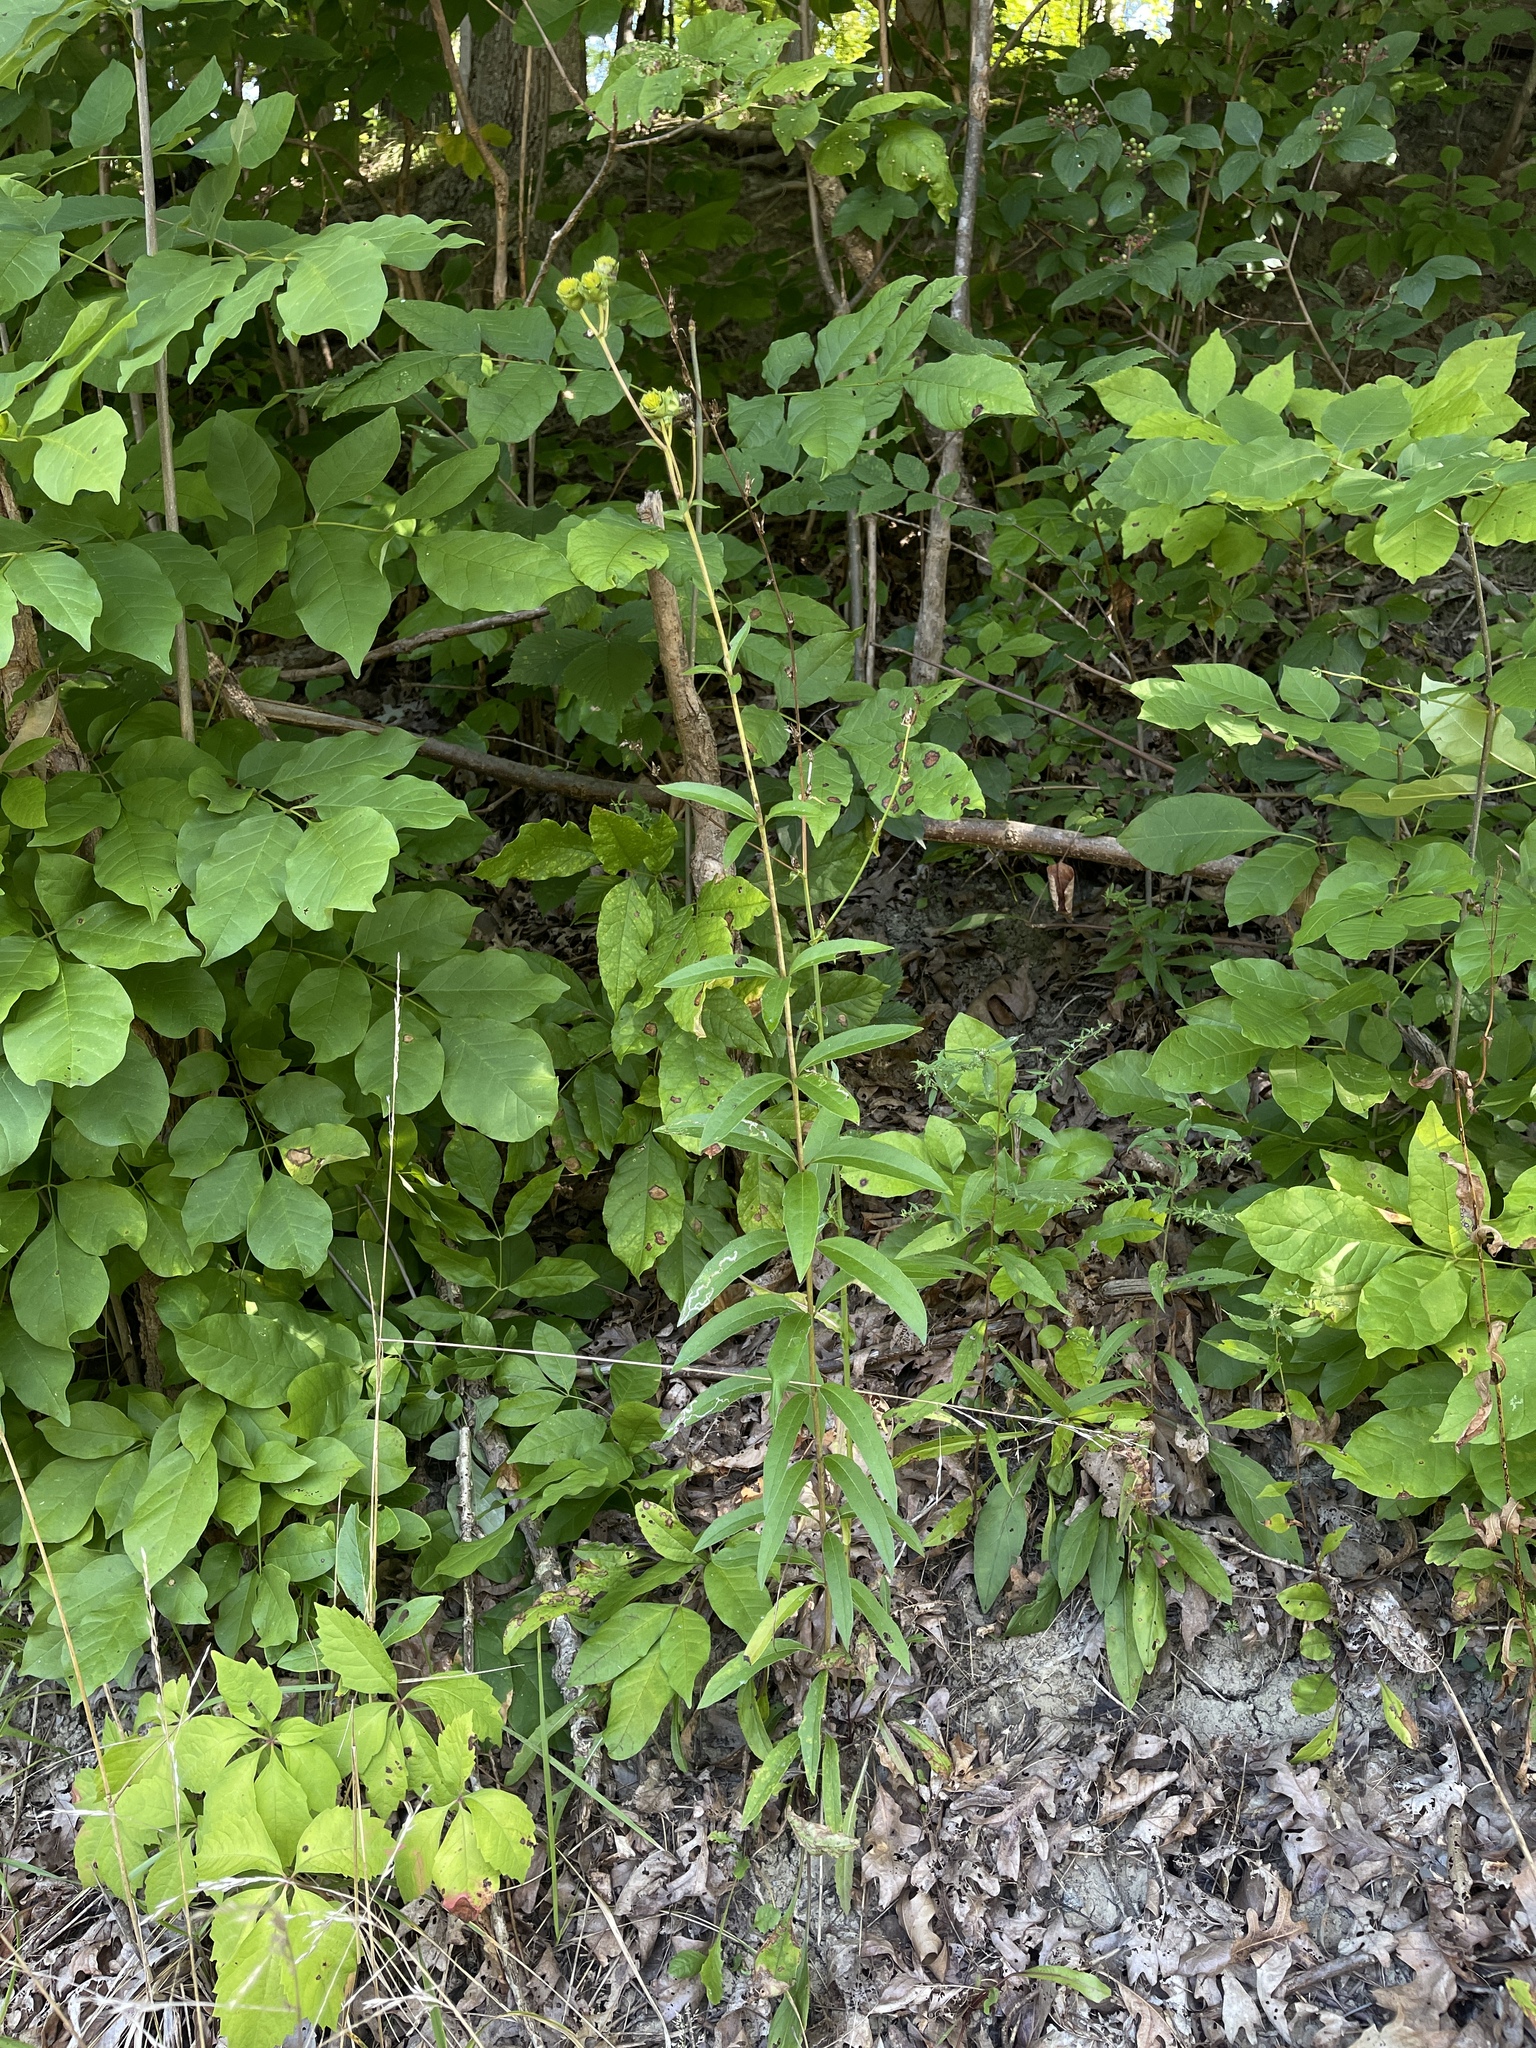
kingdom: Plantae
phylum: Tracheophyta
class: Magnoliopsida
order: Asterales
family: Asteraceae
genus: Silphium
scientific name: Silphium asteriscus
